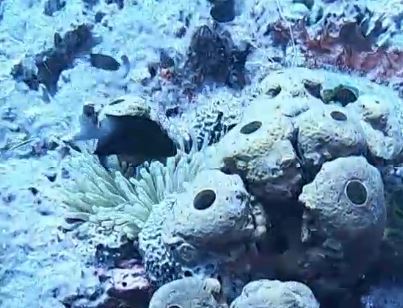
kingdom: Animalia
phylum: Chordata
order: Perciformes
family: Pomacentridae
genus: Stegastes
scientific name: Stegastes partitus
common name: Bicolor damselfish
